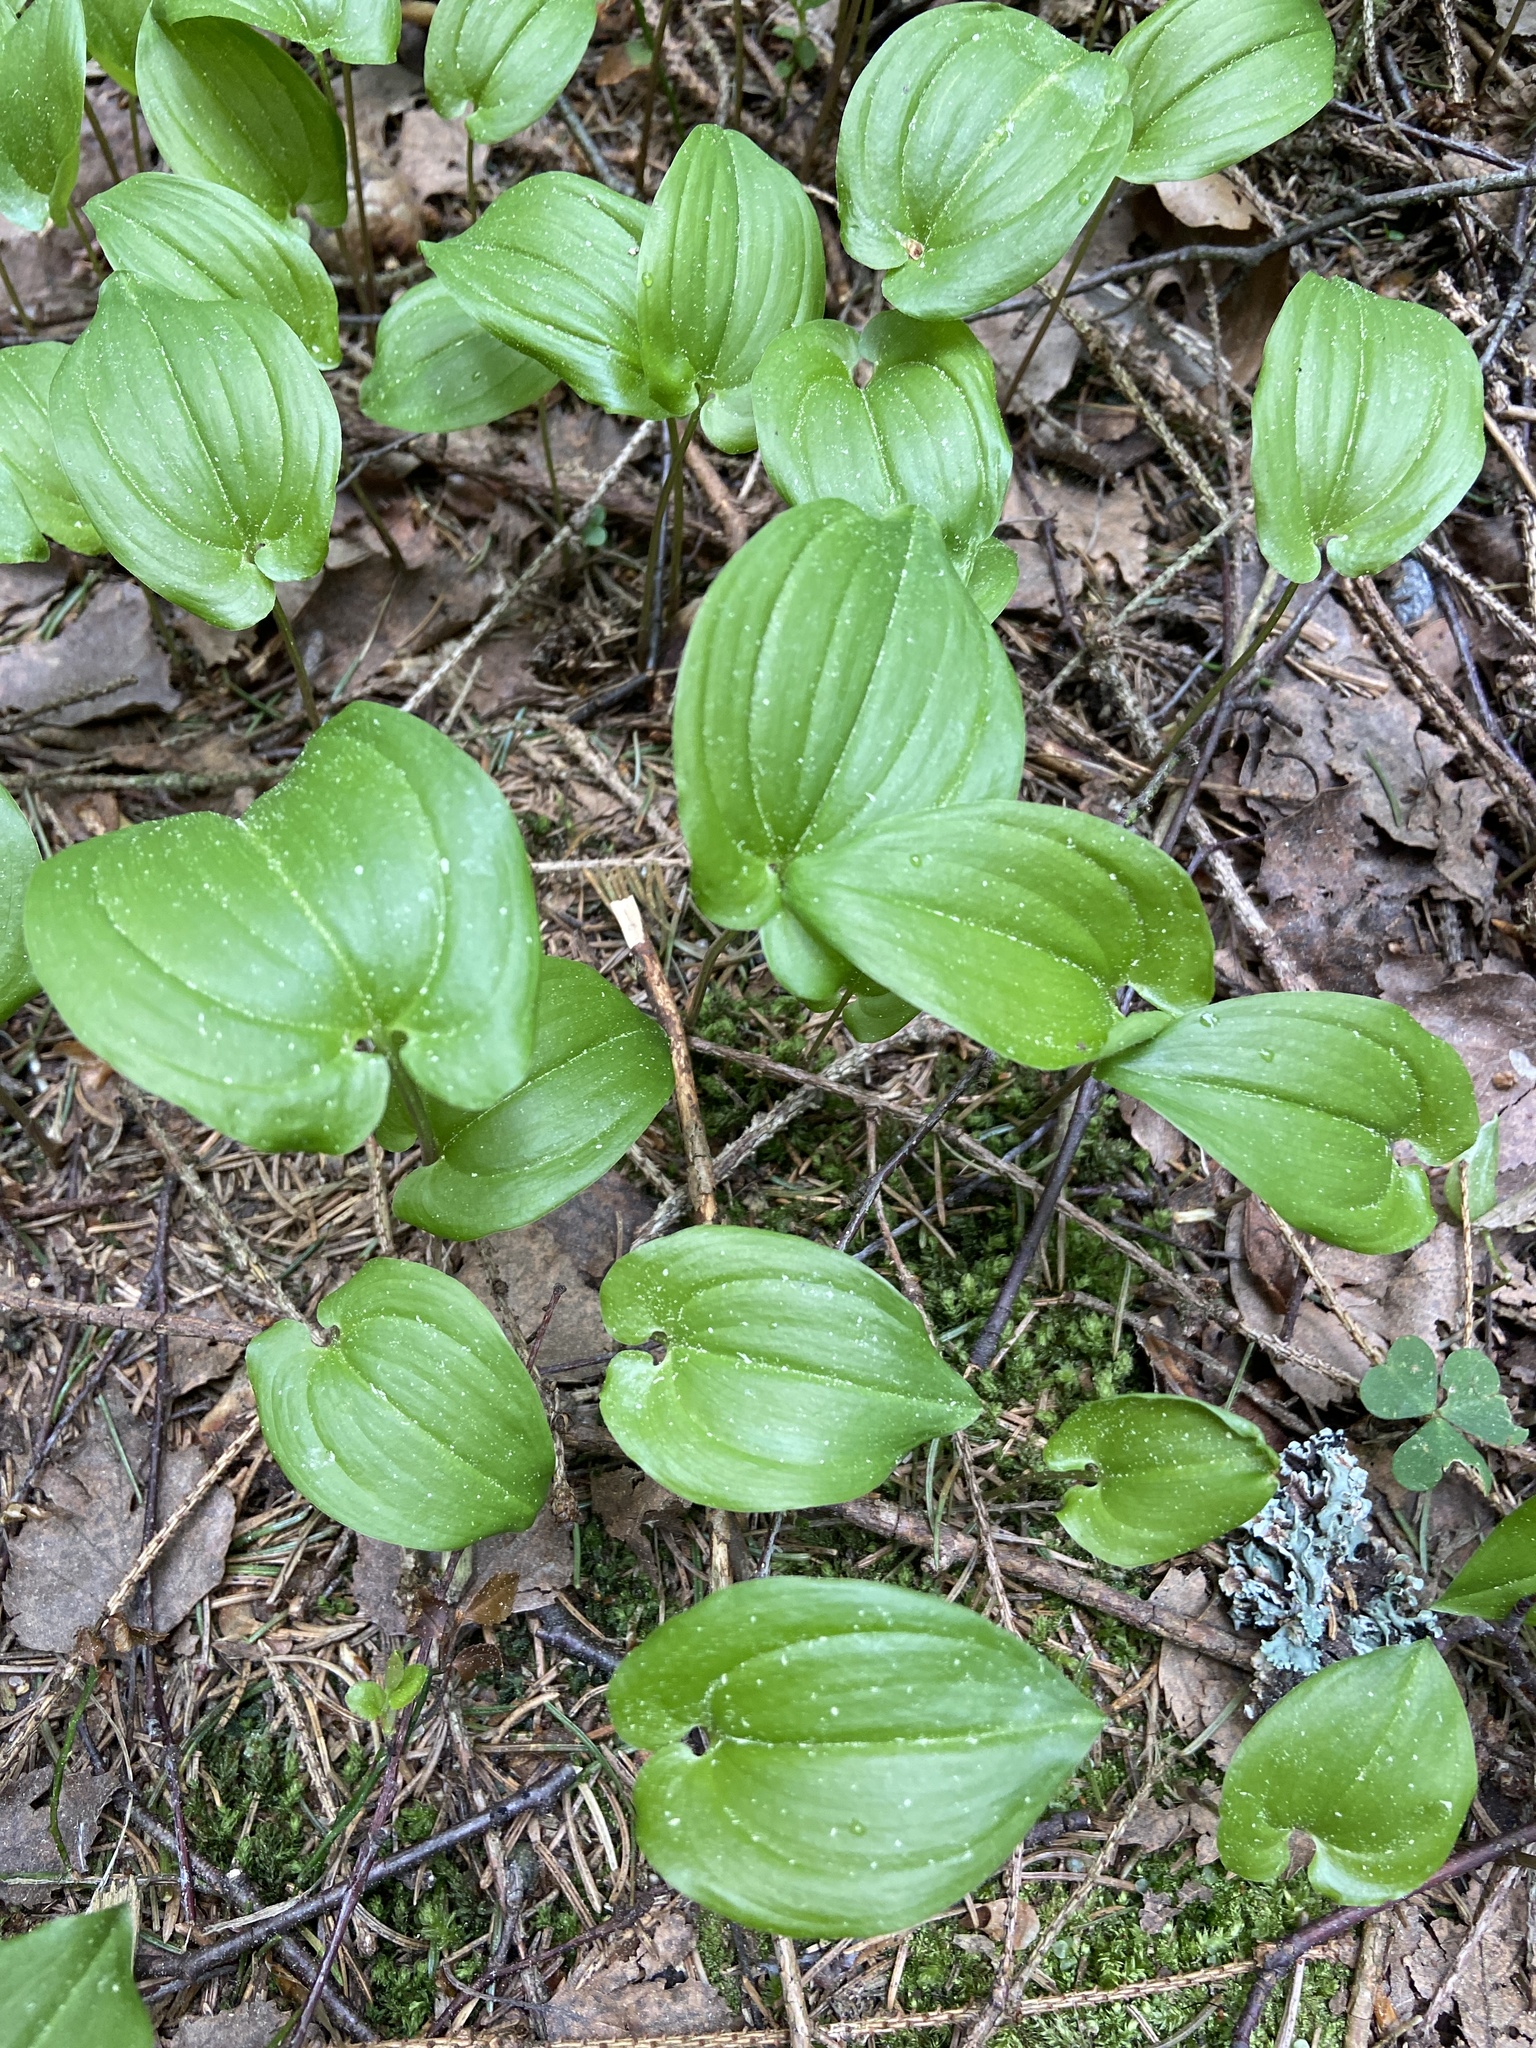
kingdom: Plantae
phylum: Tracheophyta
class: Liliopsida
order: Asparagales
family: Asparagaceae
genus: Maianthemum
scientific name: Maianthemum bifolium
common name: May lily
